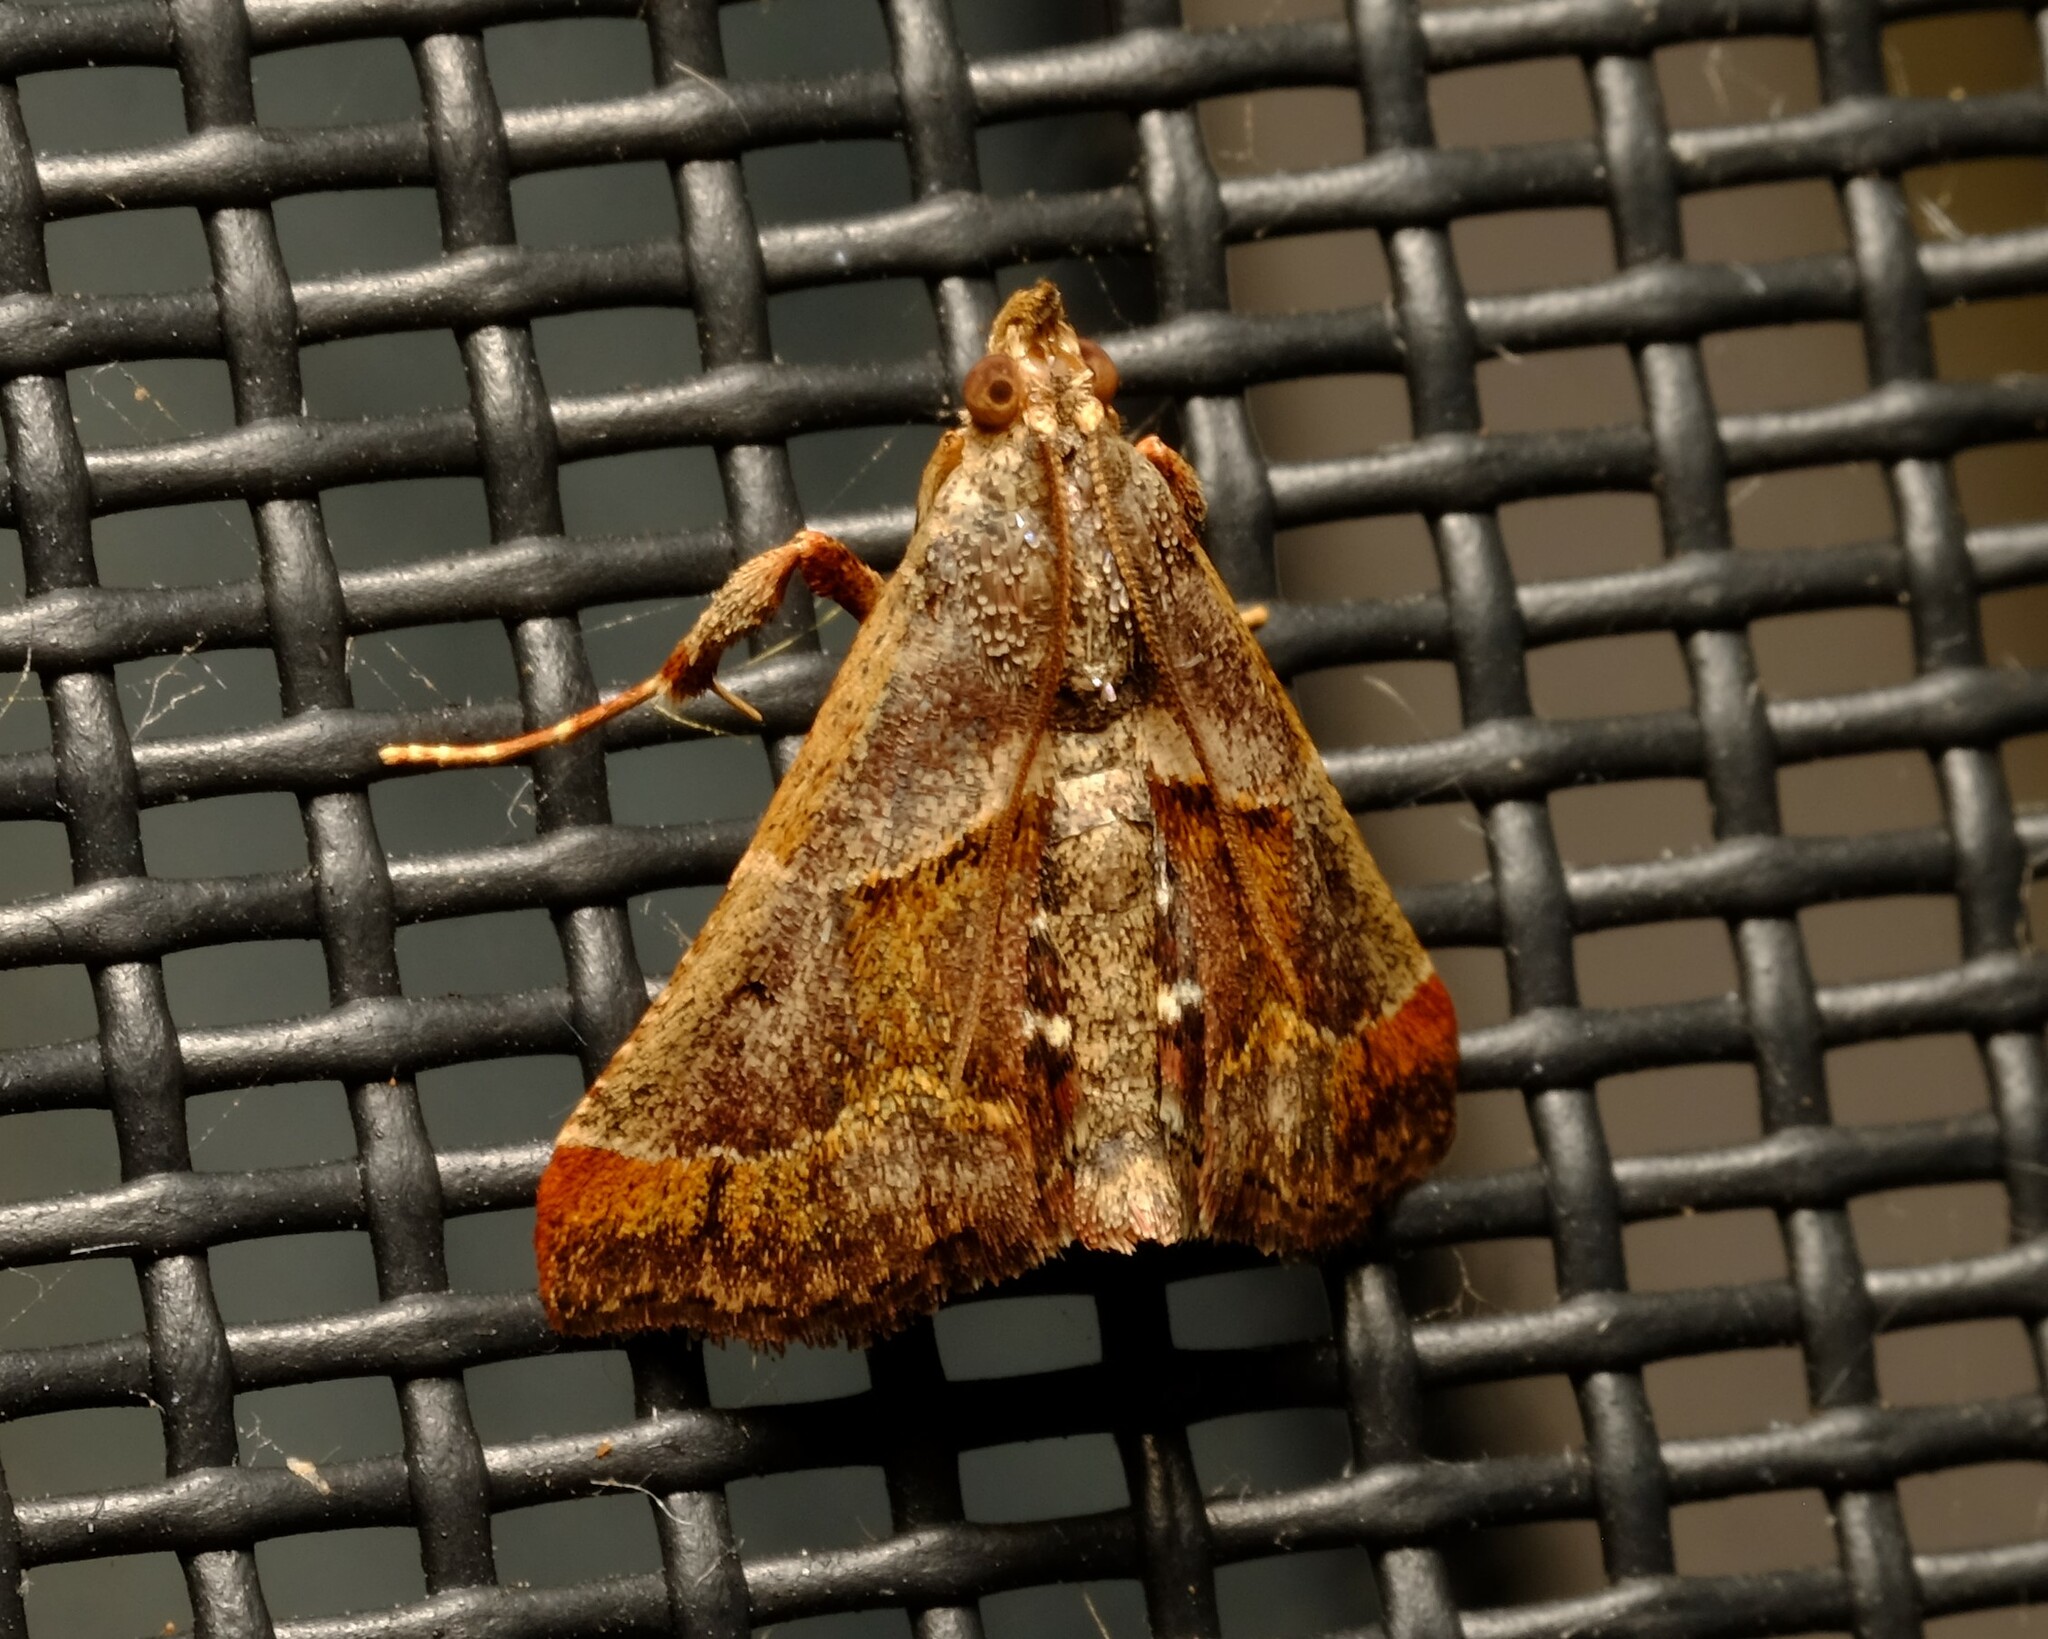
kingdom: Animalia
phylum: Arthropoda
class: Insecta
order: Lepidoptera
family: Pyralidae
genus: Gauna
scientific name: Gauna aegusalis
